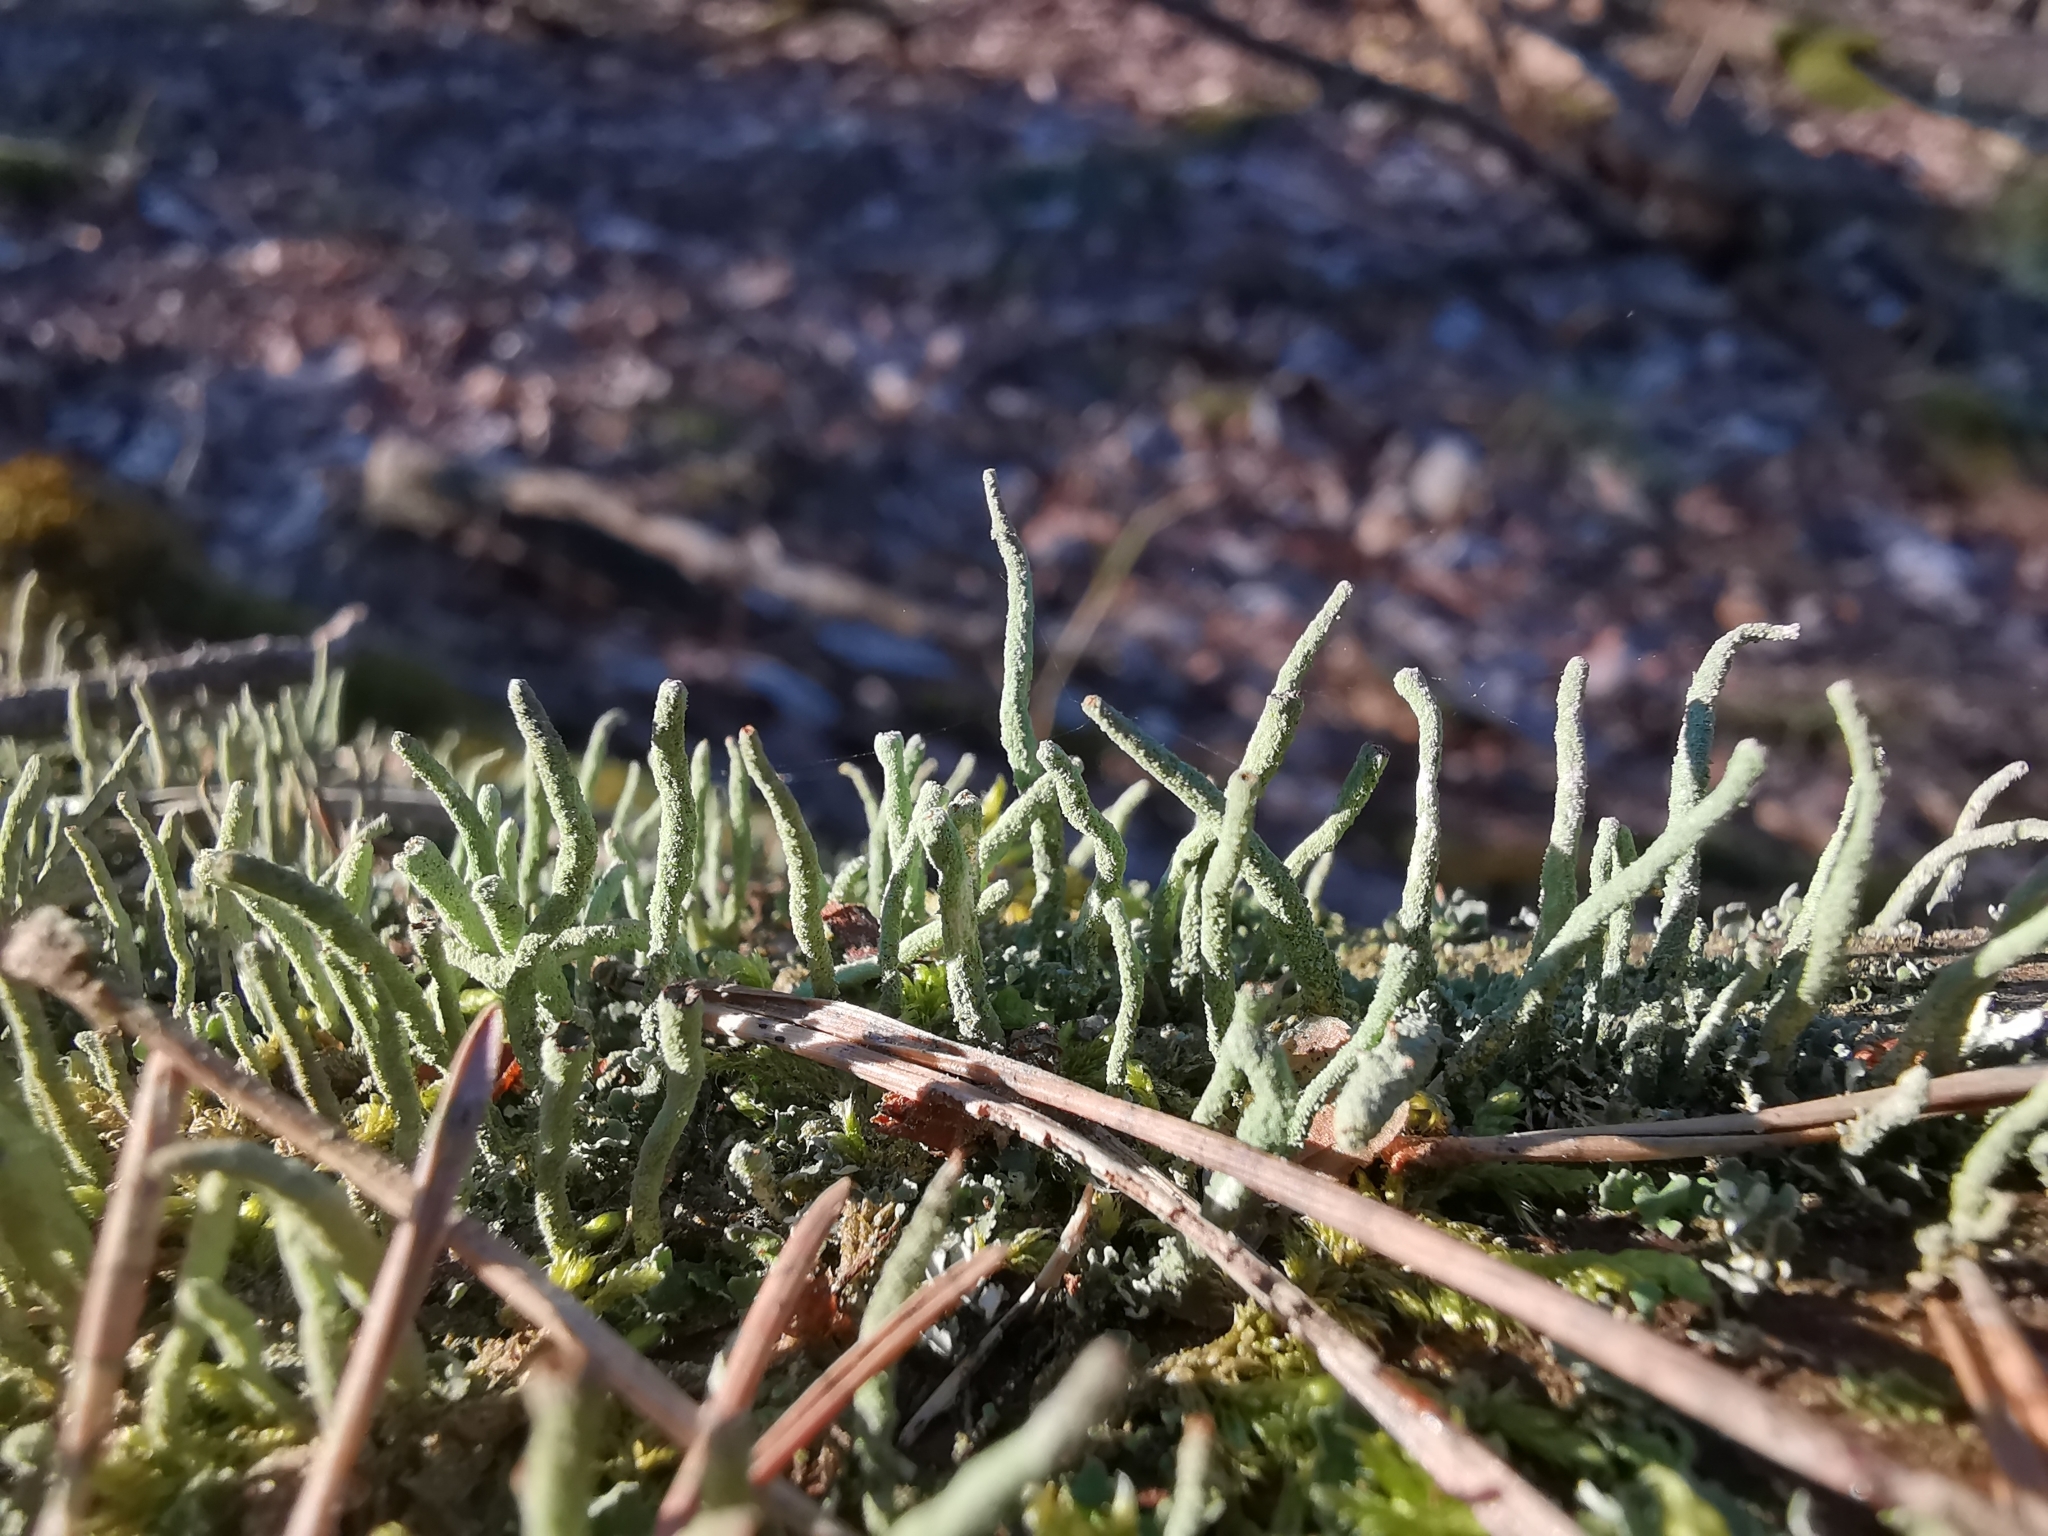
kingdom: Fungi
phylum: Ascomycota
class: Lecanoromycetes
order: Lecanorales
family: Cladoniaceae
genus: Cladonia
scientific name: Cladonia coniocraea
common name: Common powderhorn
